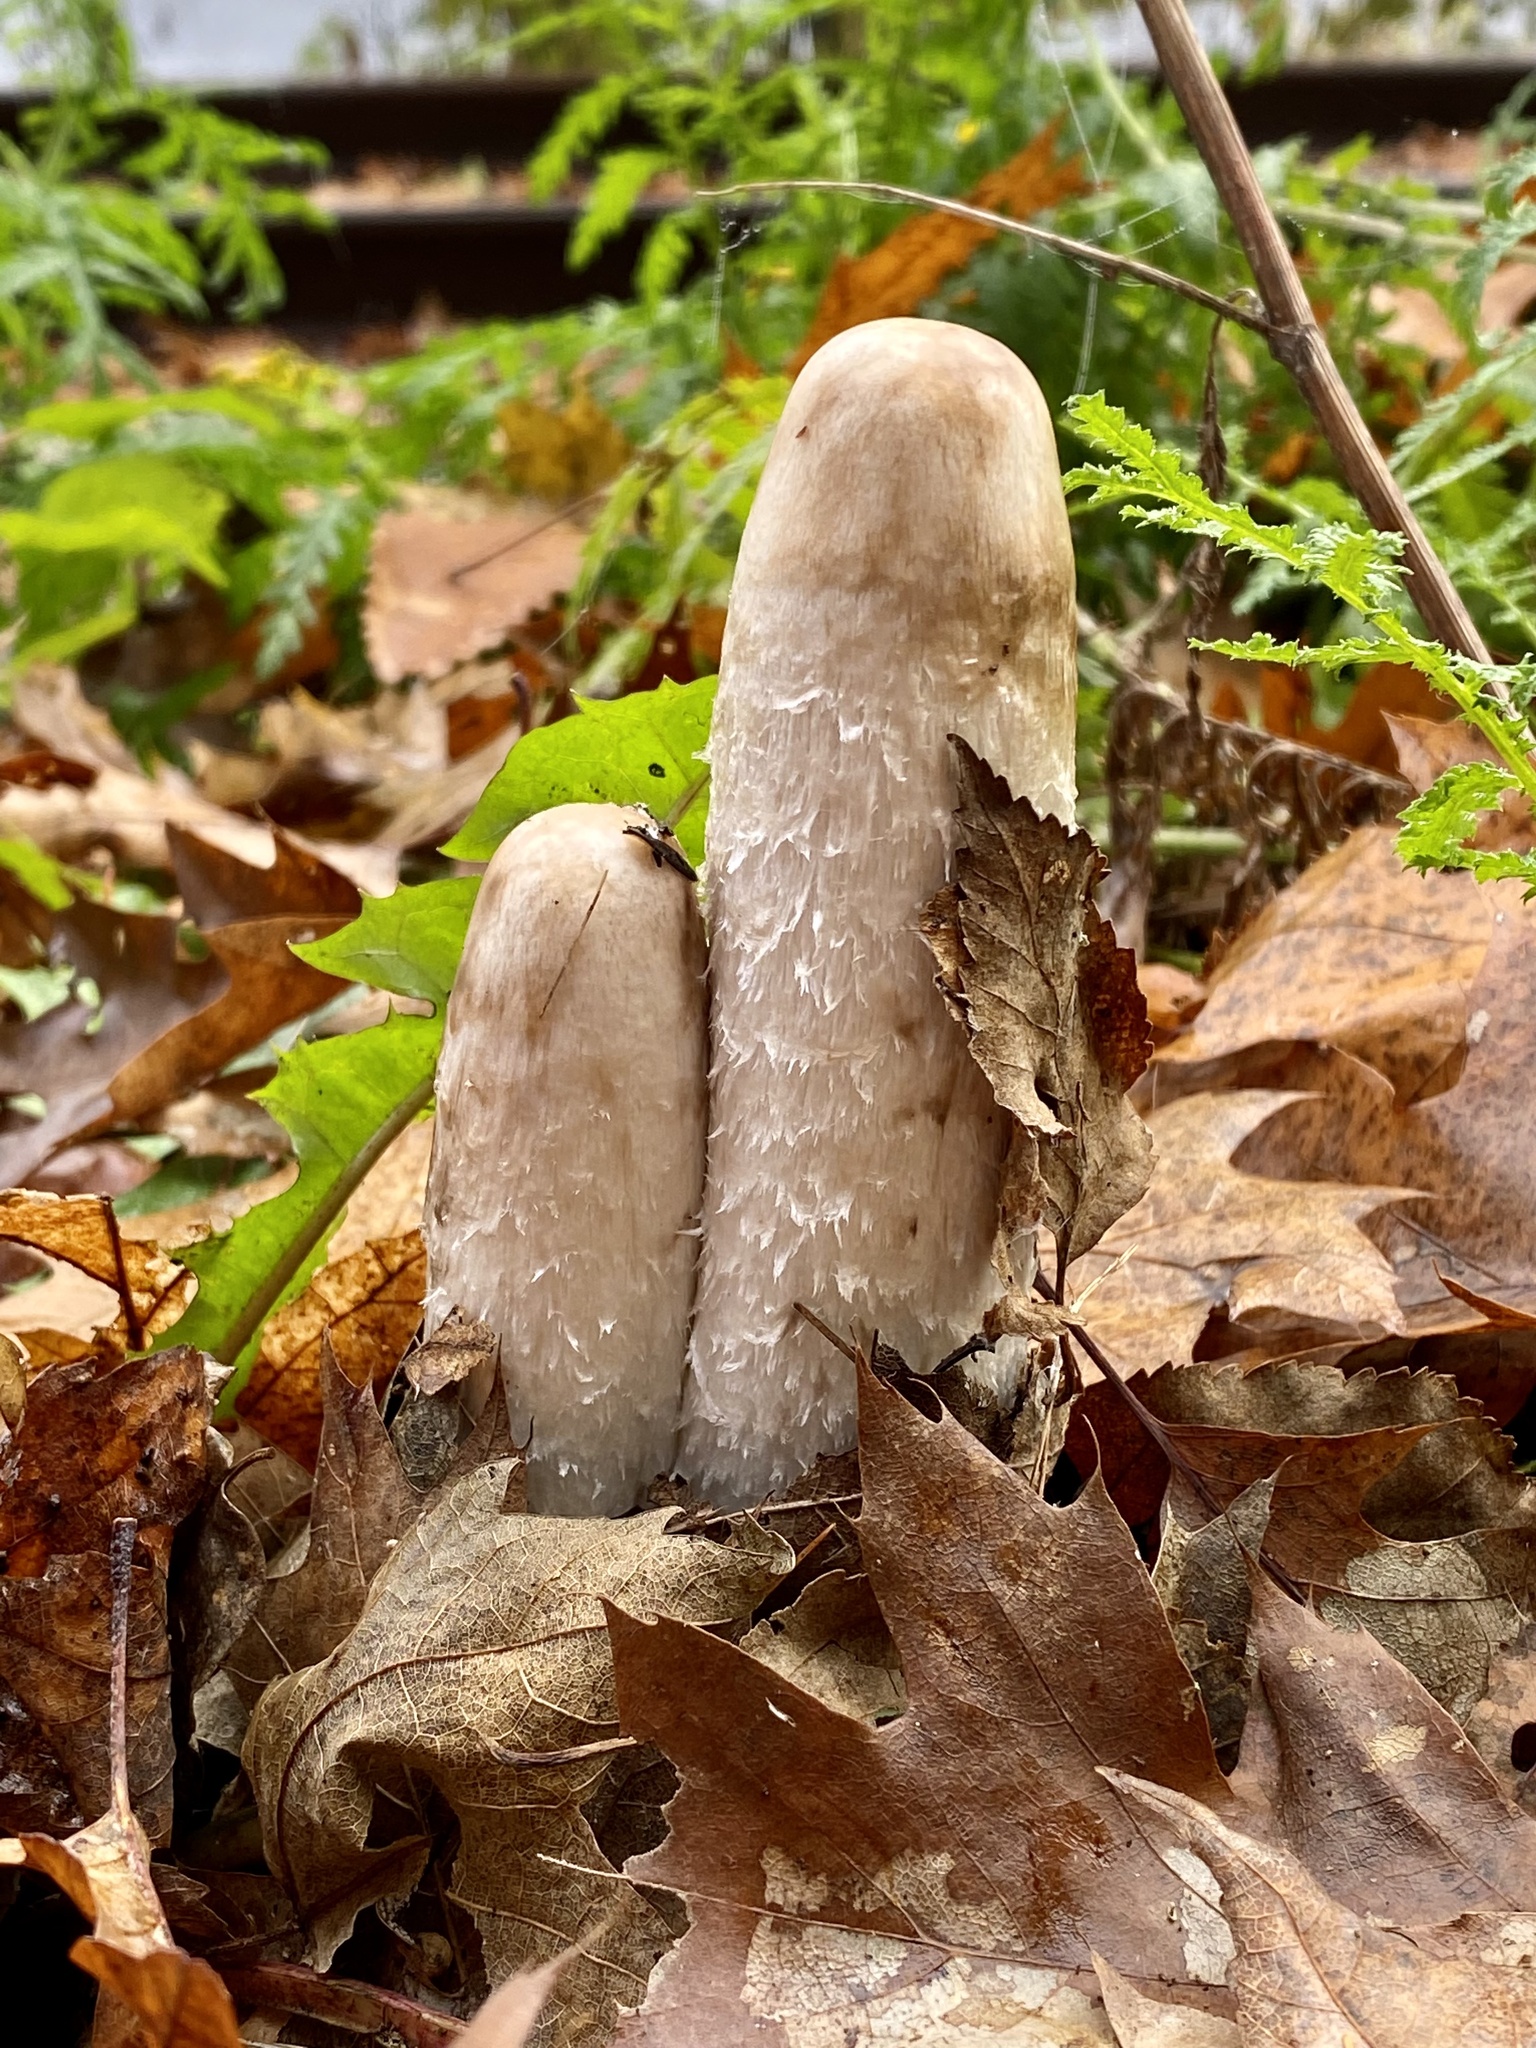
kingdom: Fungi
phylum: Basidiomycota
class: Agaricomycetes
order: Agaricales
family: Agaricaceae
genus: Coprinus
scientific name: Coprinus comatus
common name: Lawyer's wig
